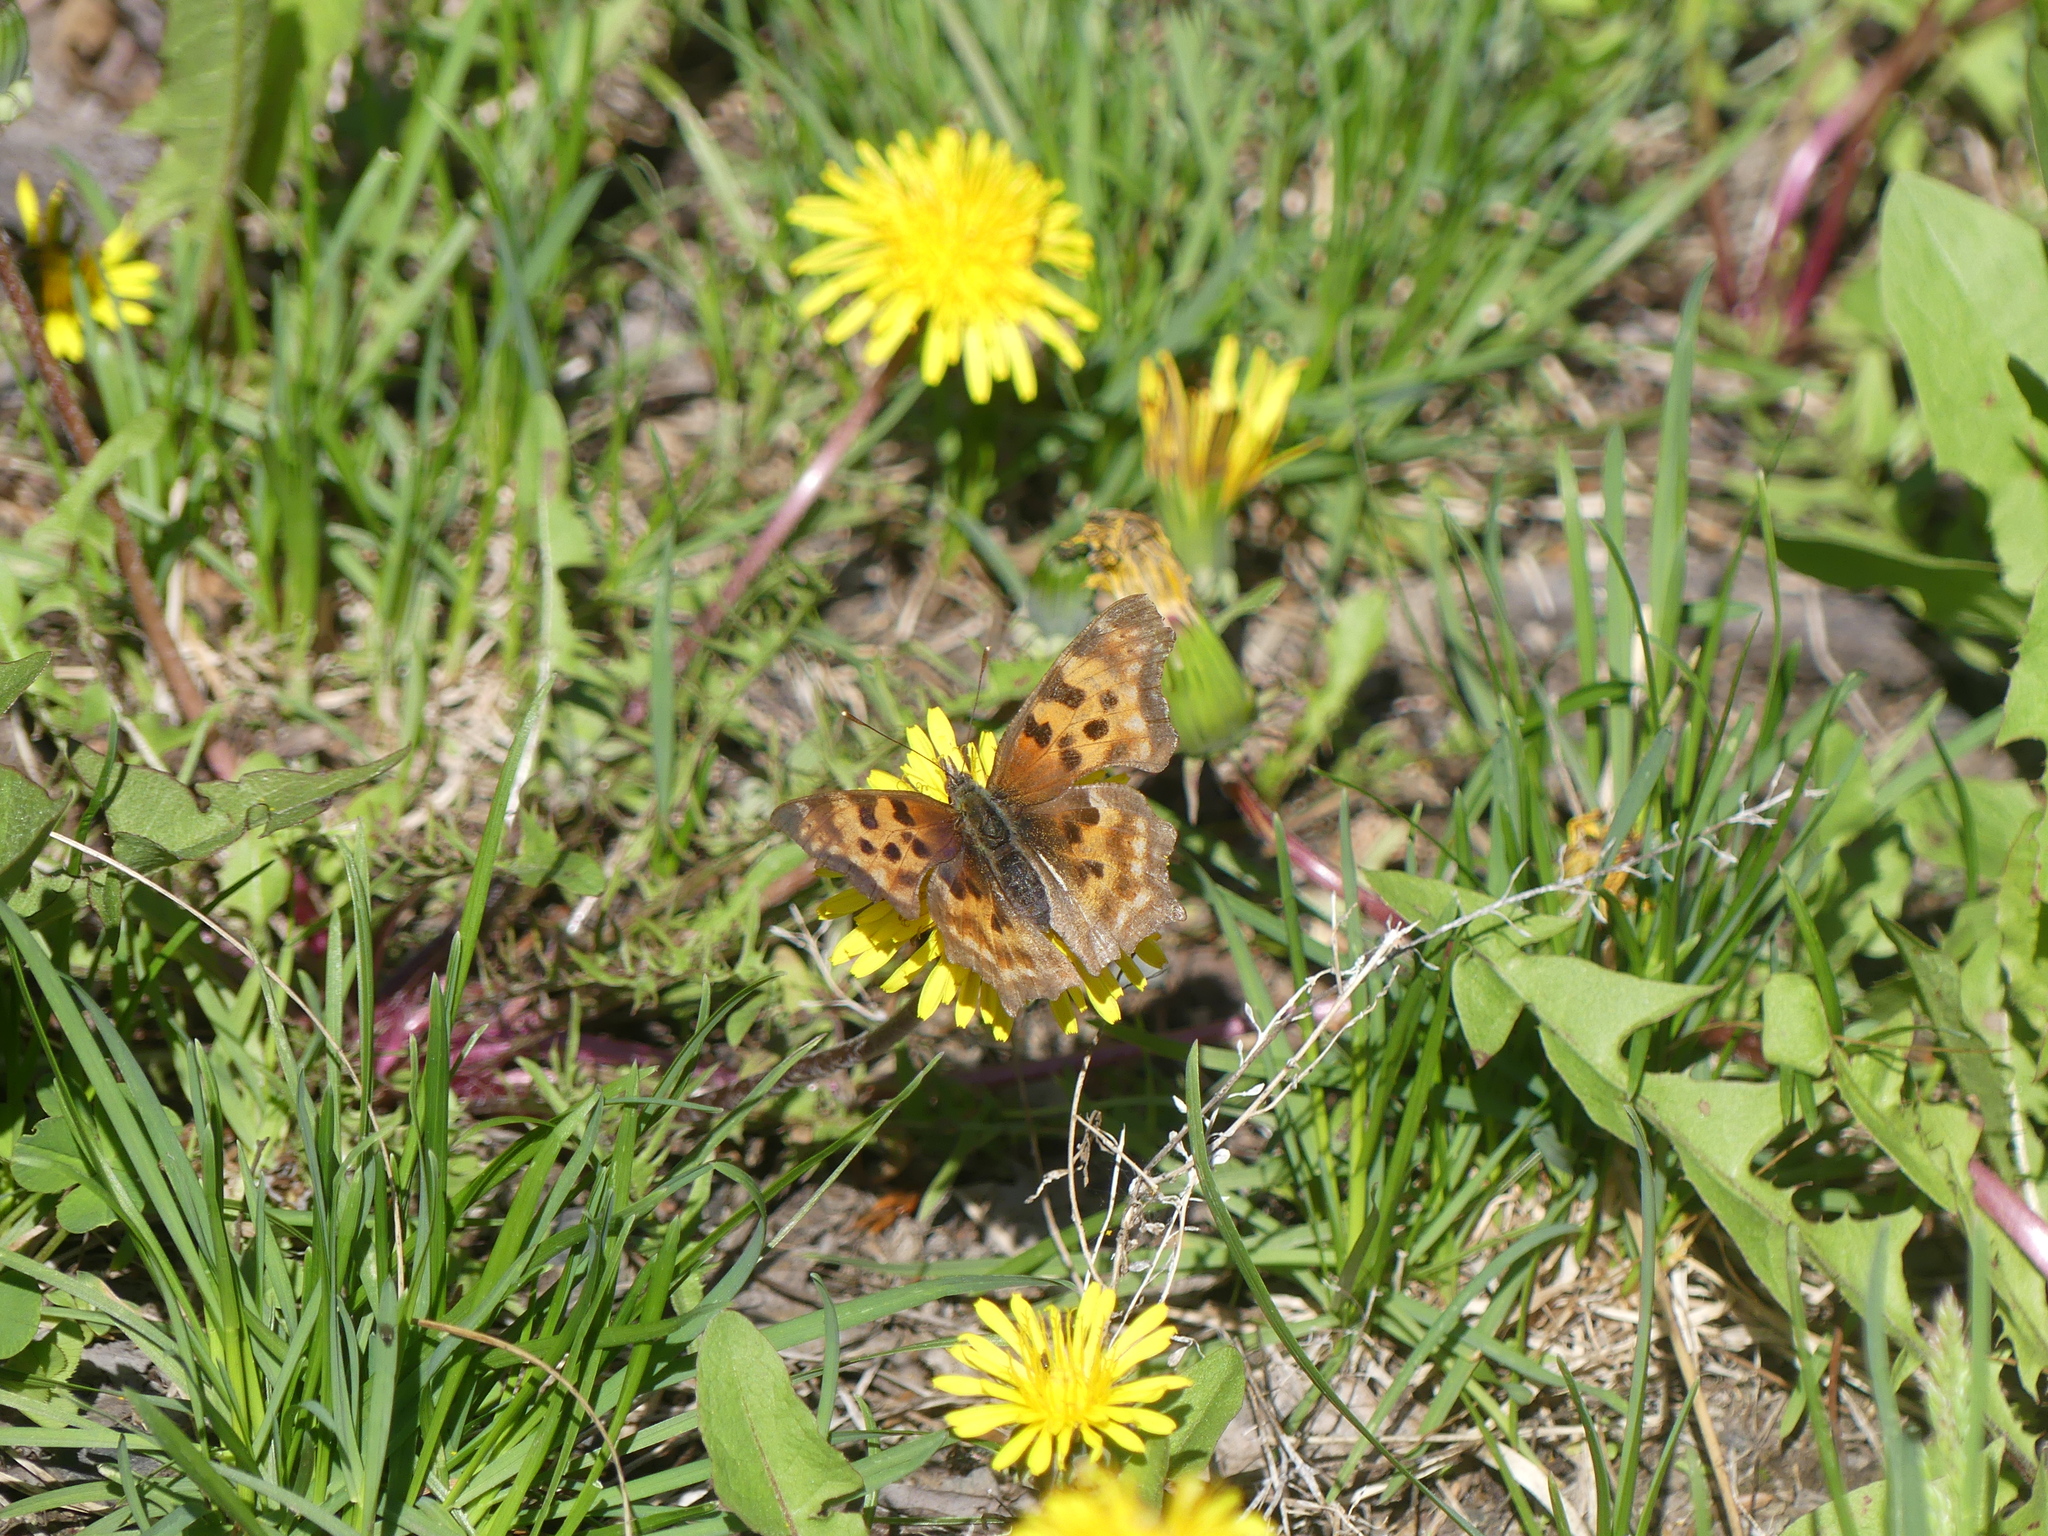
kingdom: Animalia
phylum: Arthropoda
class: Insecta
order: Lepidoptera
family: Nymphalidae
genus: Polygonia
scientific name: Polygonia satyrus
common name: Satyr angle wing
